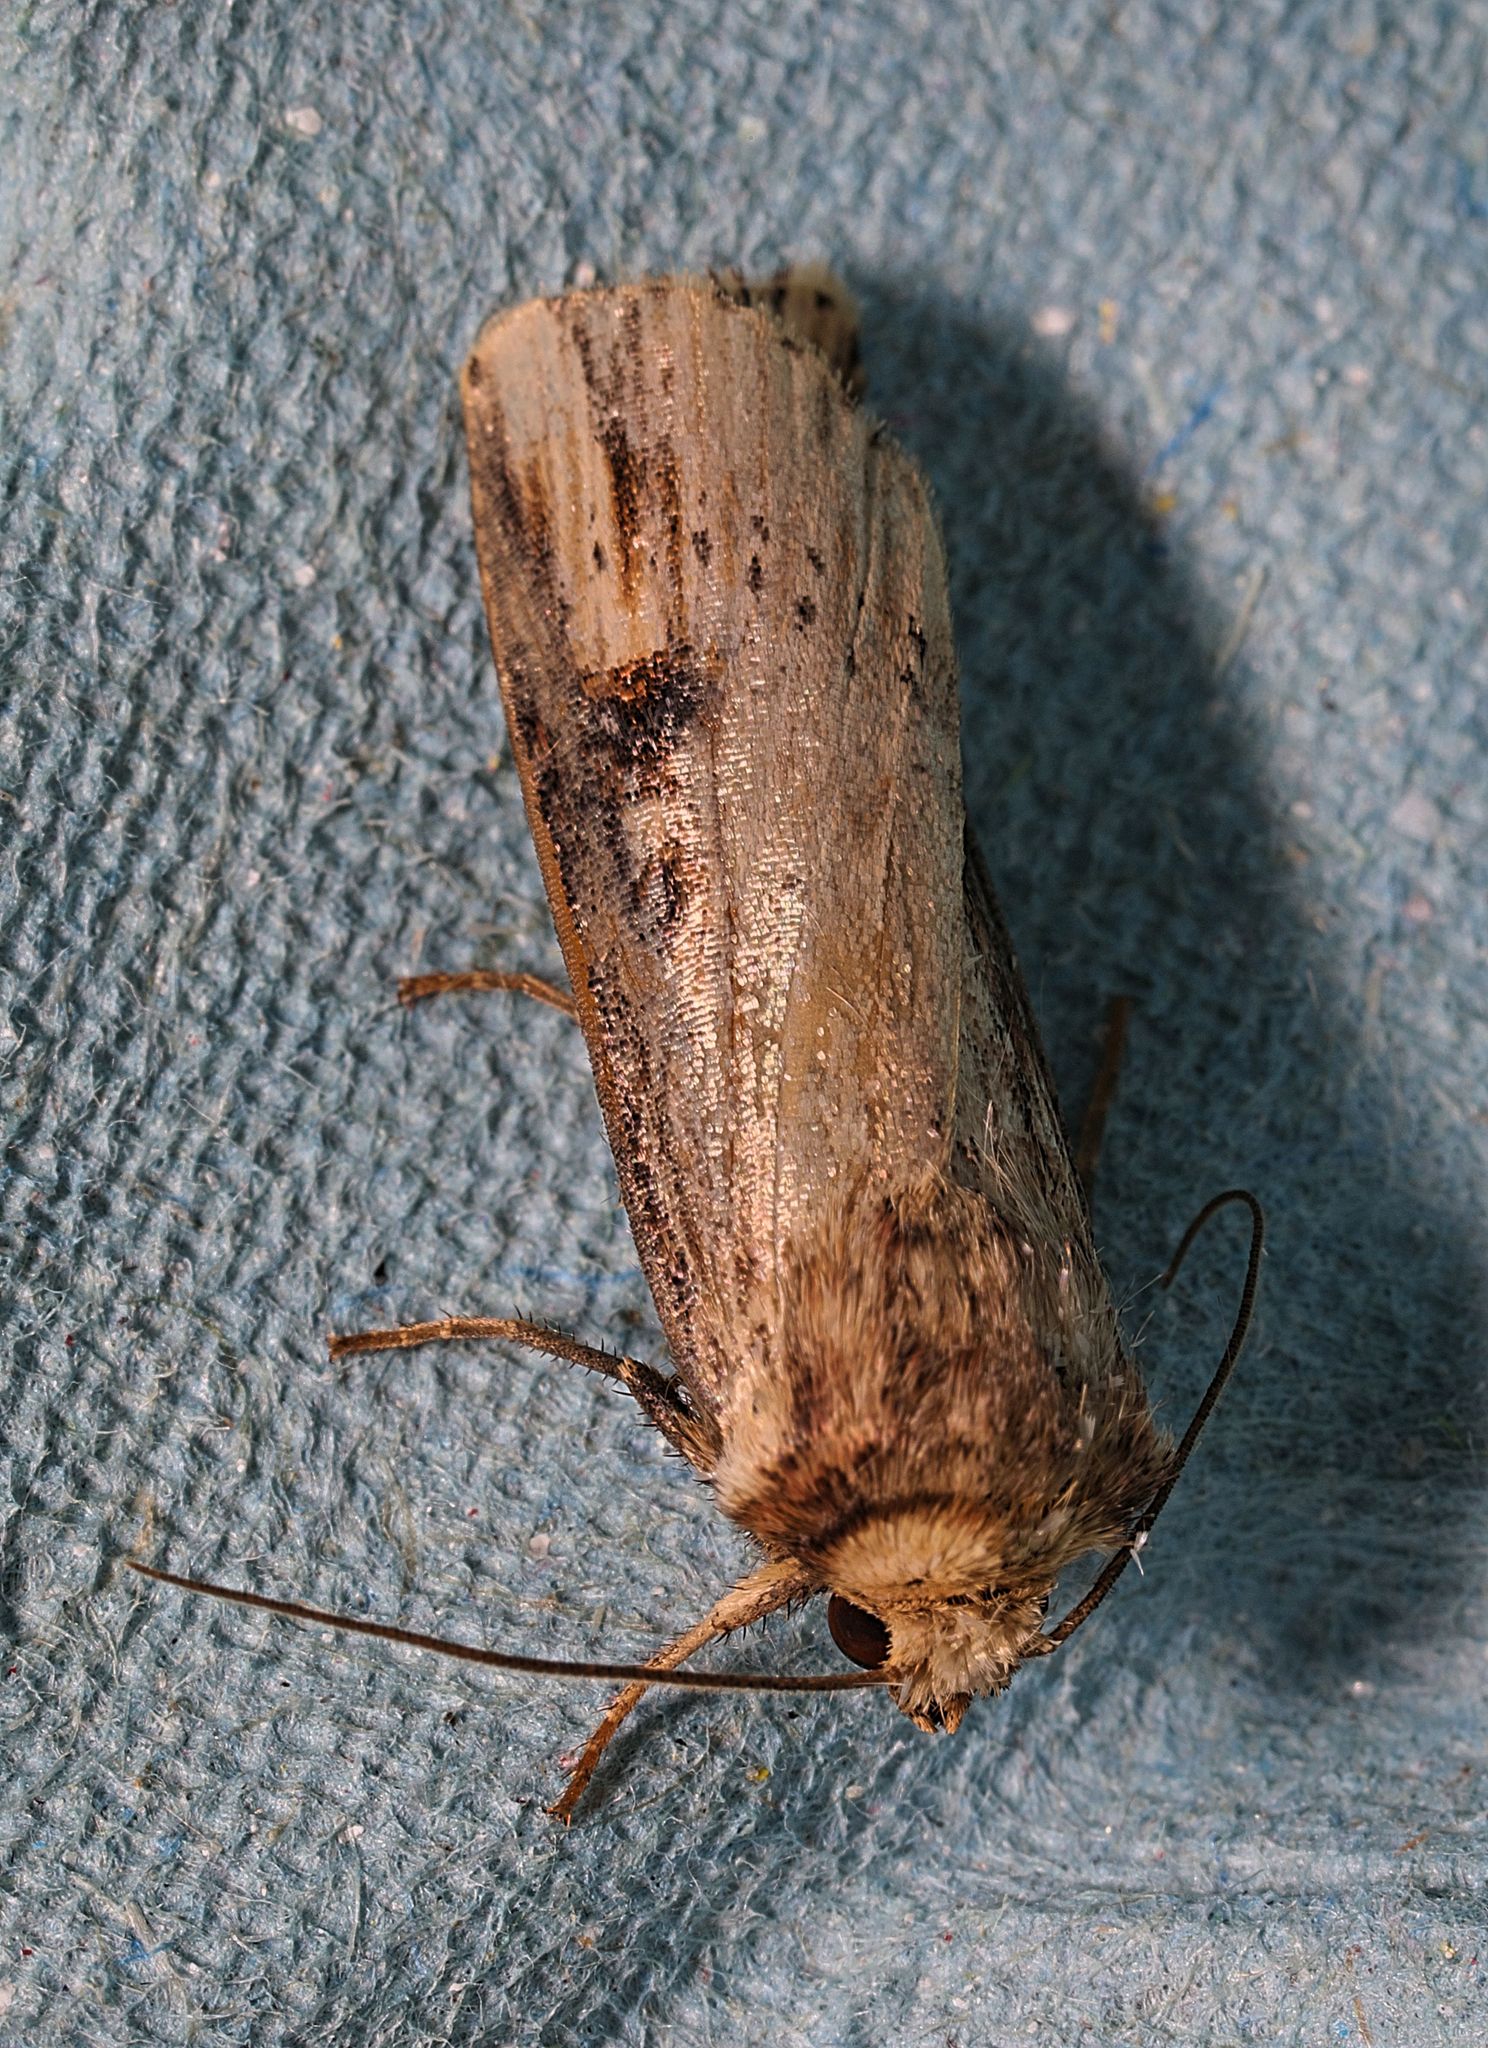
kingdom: Animalia
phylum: Arthropoda
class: Insecta
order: Lepidoptera
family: Noctuidae
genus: Axylia
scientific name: Axylia putris
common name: Flame
